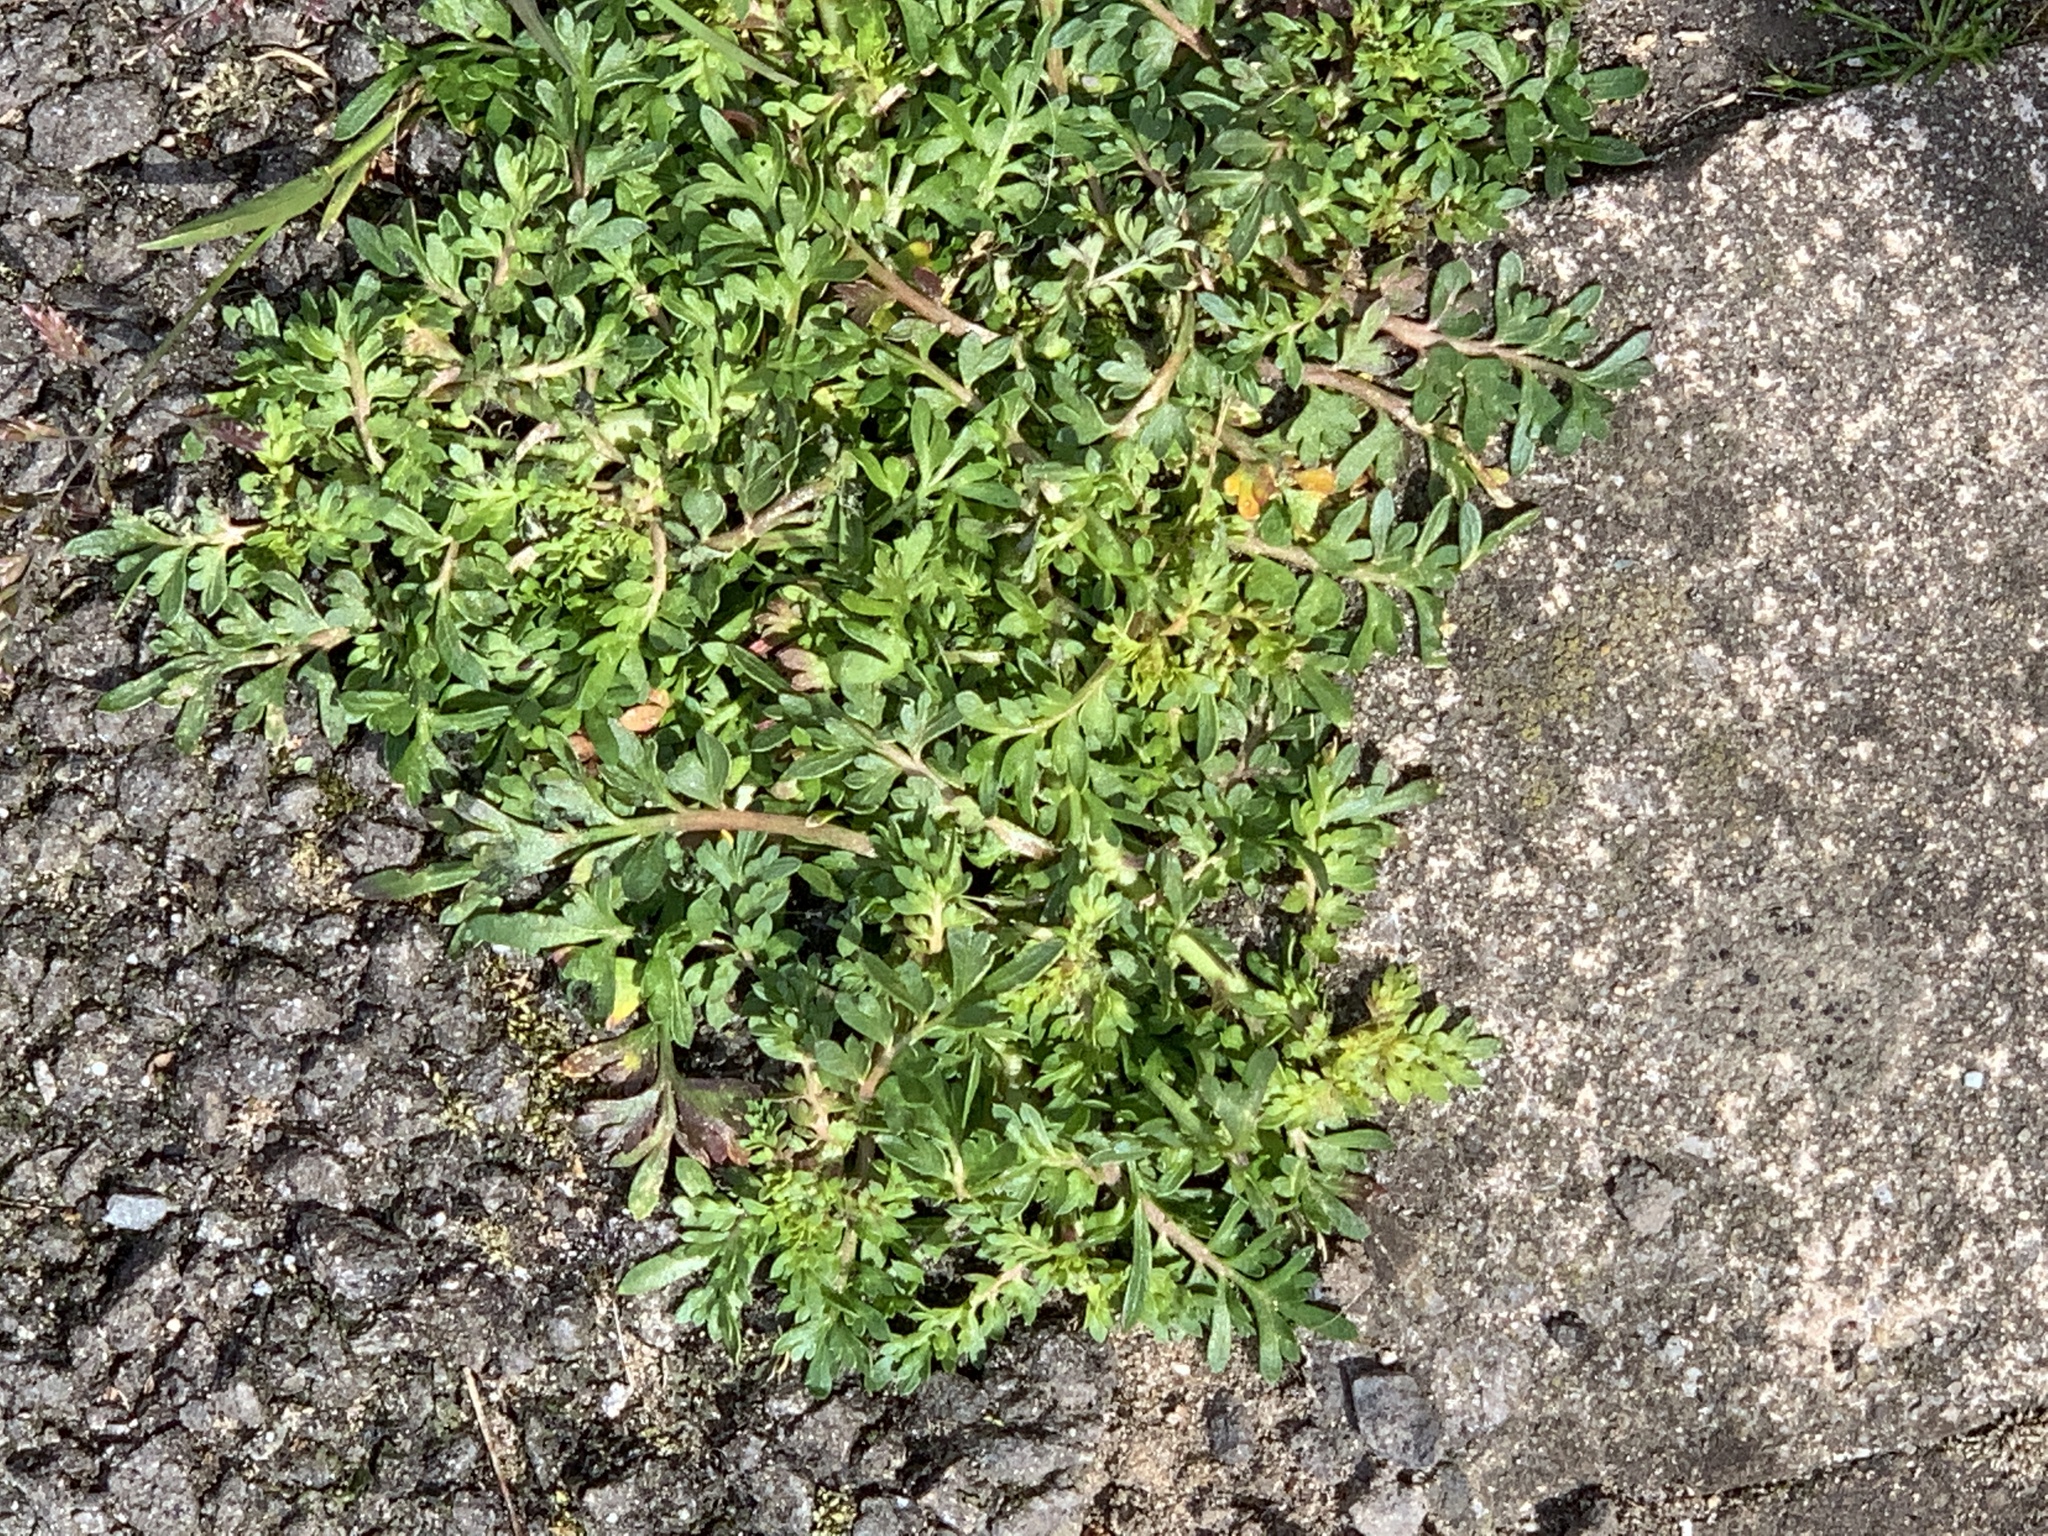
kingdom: Plantae
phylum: Tracheophyta
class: Magnoliopsida
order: Brassicales
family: Brassicaceae
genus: Lepidium
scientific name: Lepidium didymum
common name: Lesser swinecress
